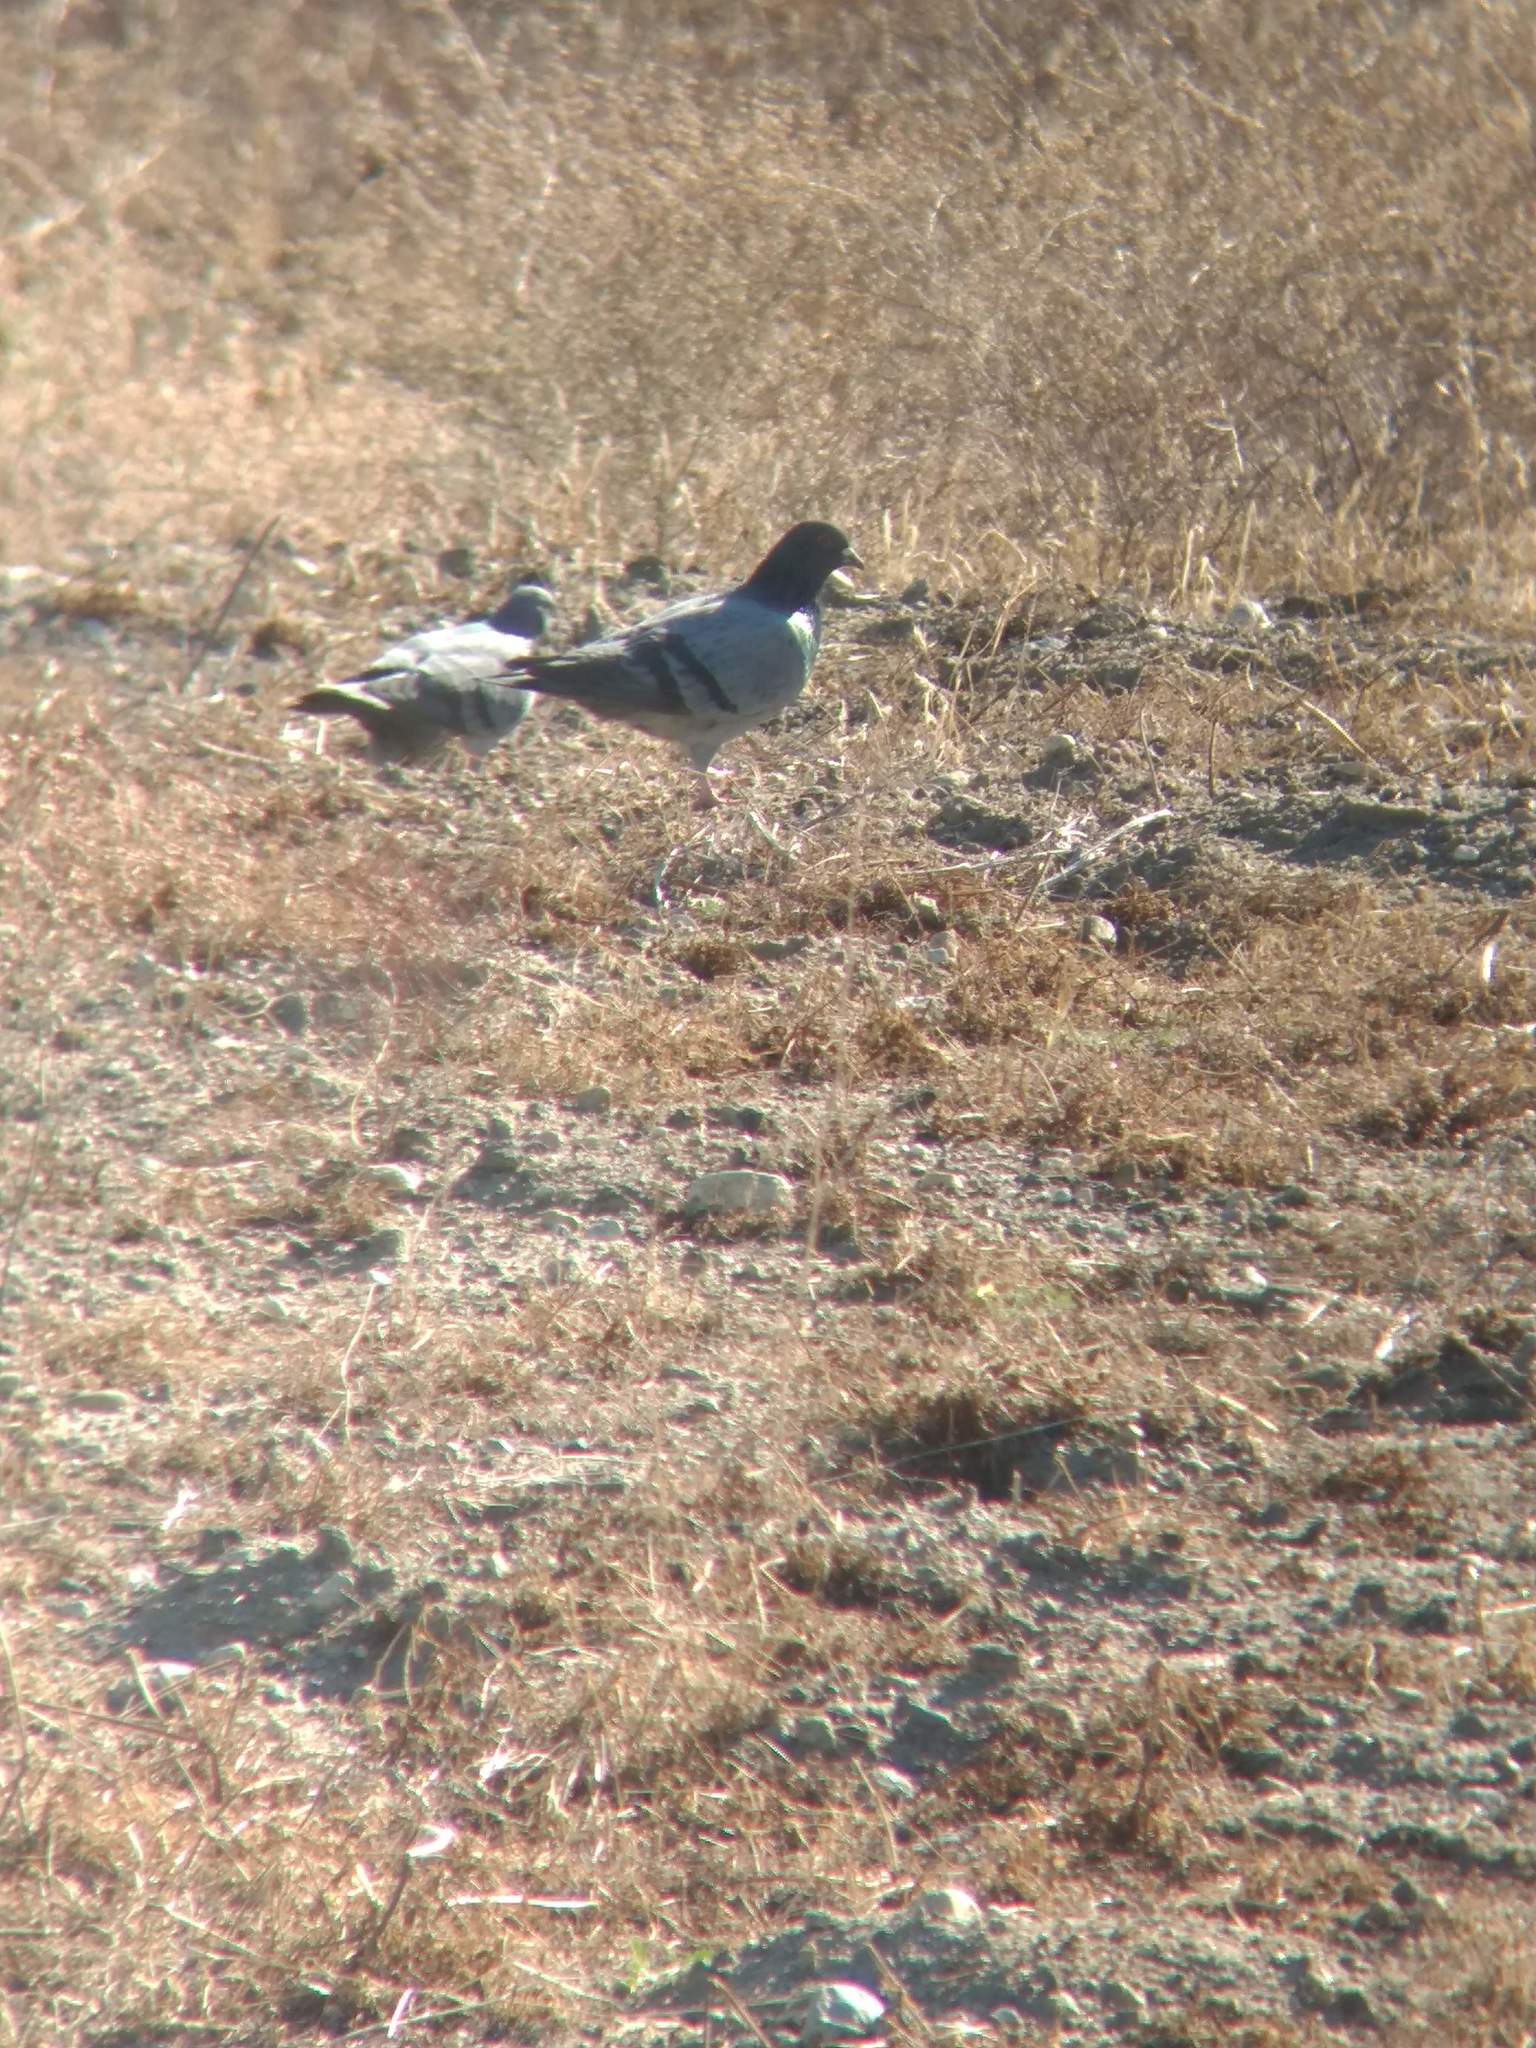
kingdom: Animalia
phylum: Chordata
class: Aves
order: Columbiformes
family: Columbidae
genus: Columba
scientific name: Columba livia
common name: Rock pigeon
